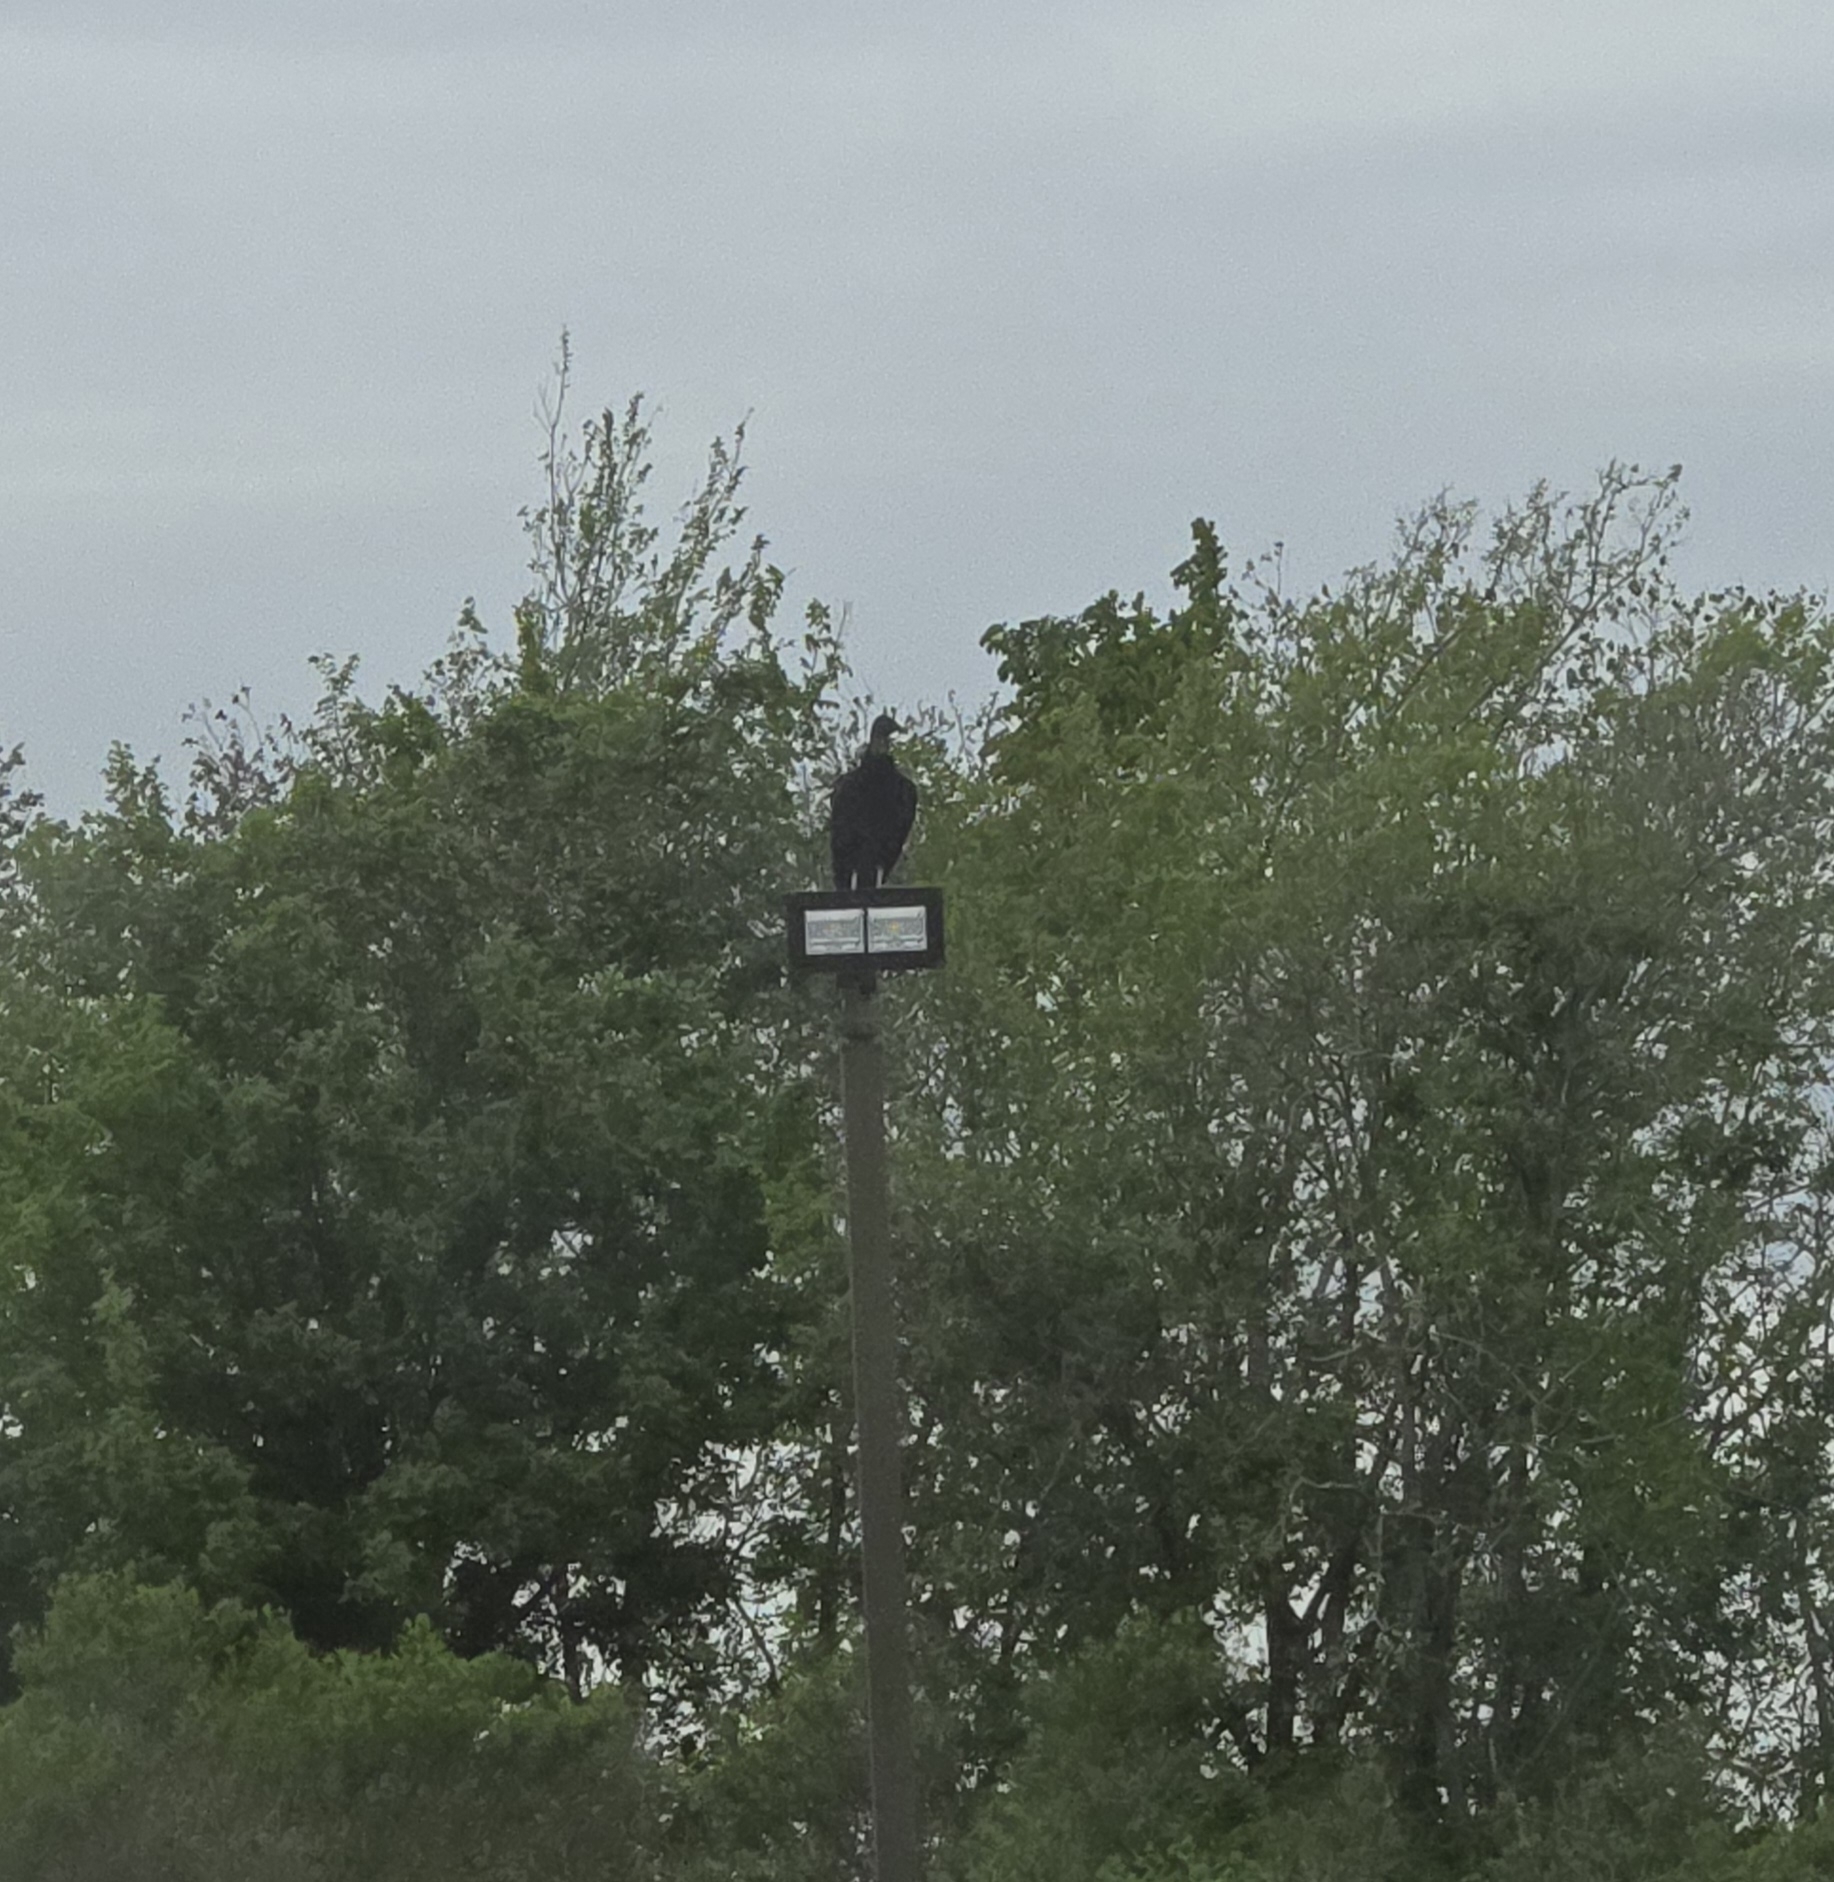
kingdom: Animalia
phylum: Chordata
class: Aves
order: Accipitriformes
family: Cathartidae
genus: Coragyps
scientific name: Coragyps atratus
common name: Black vulture
